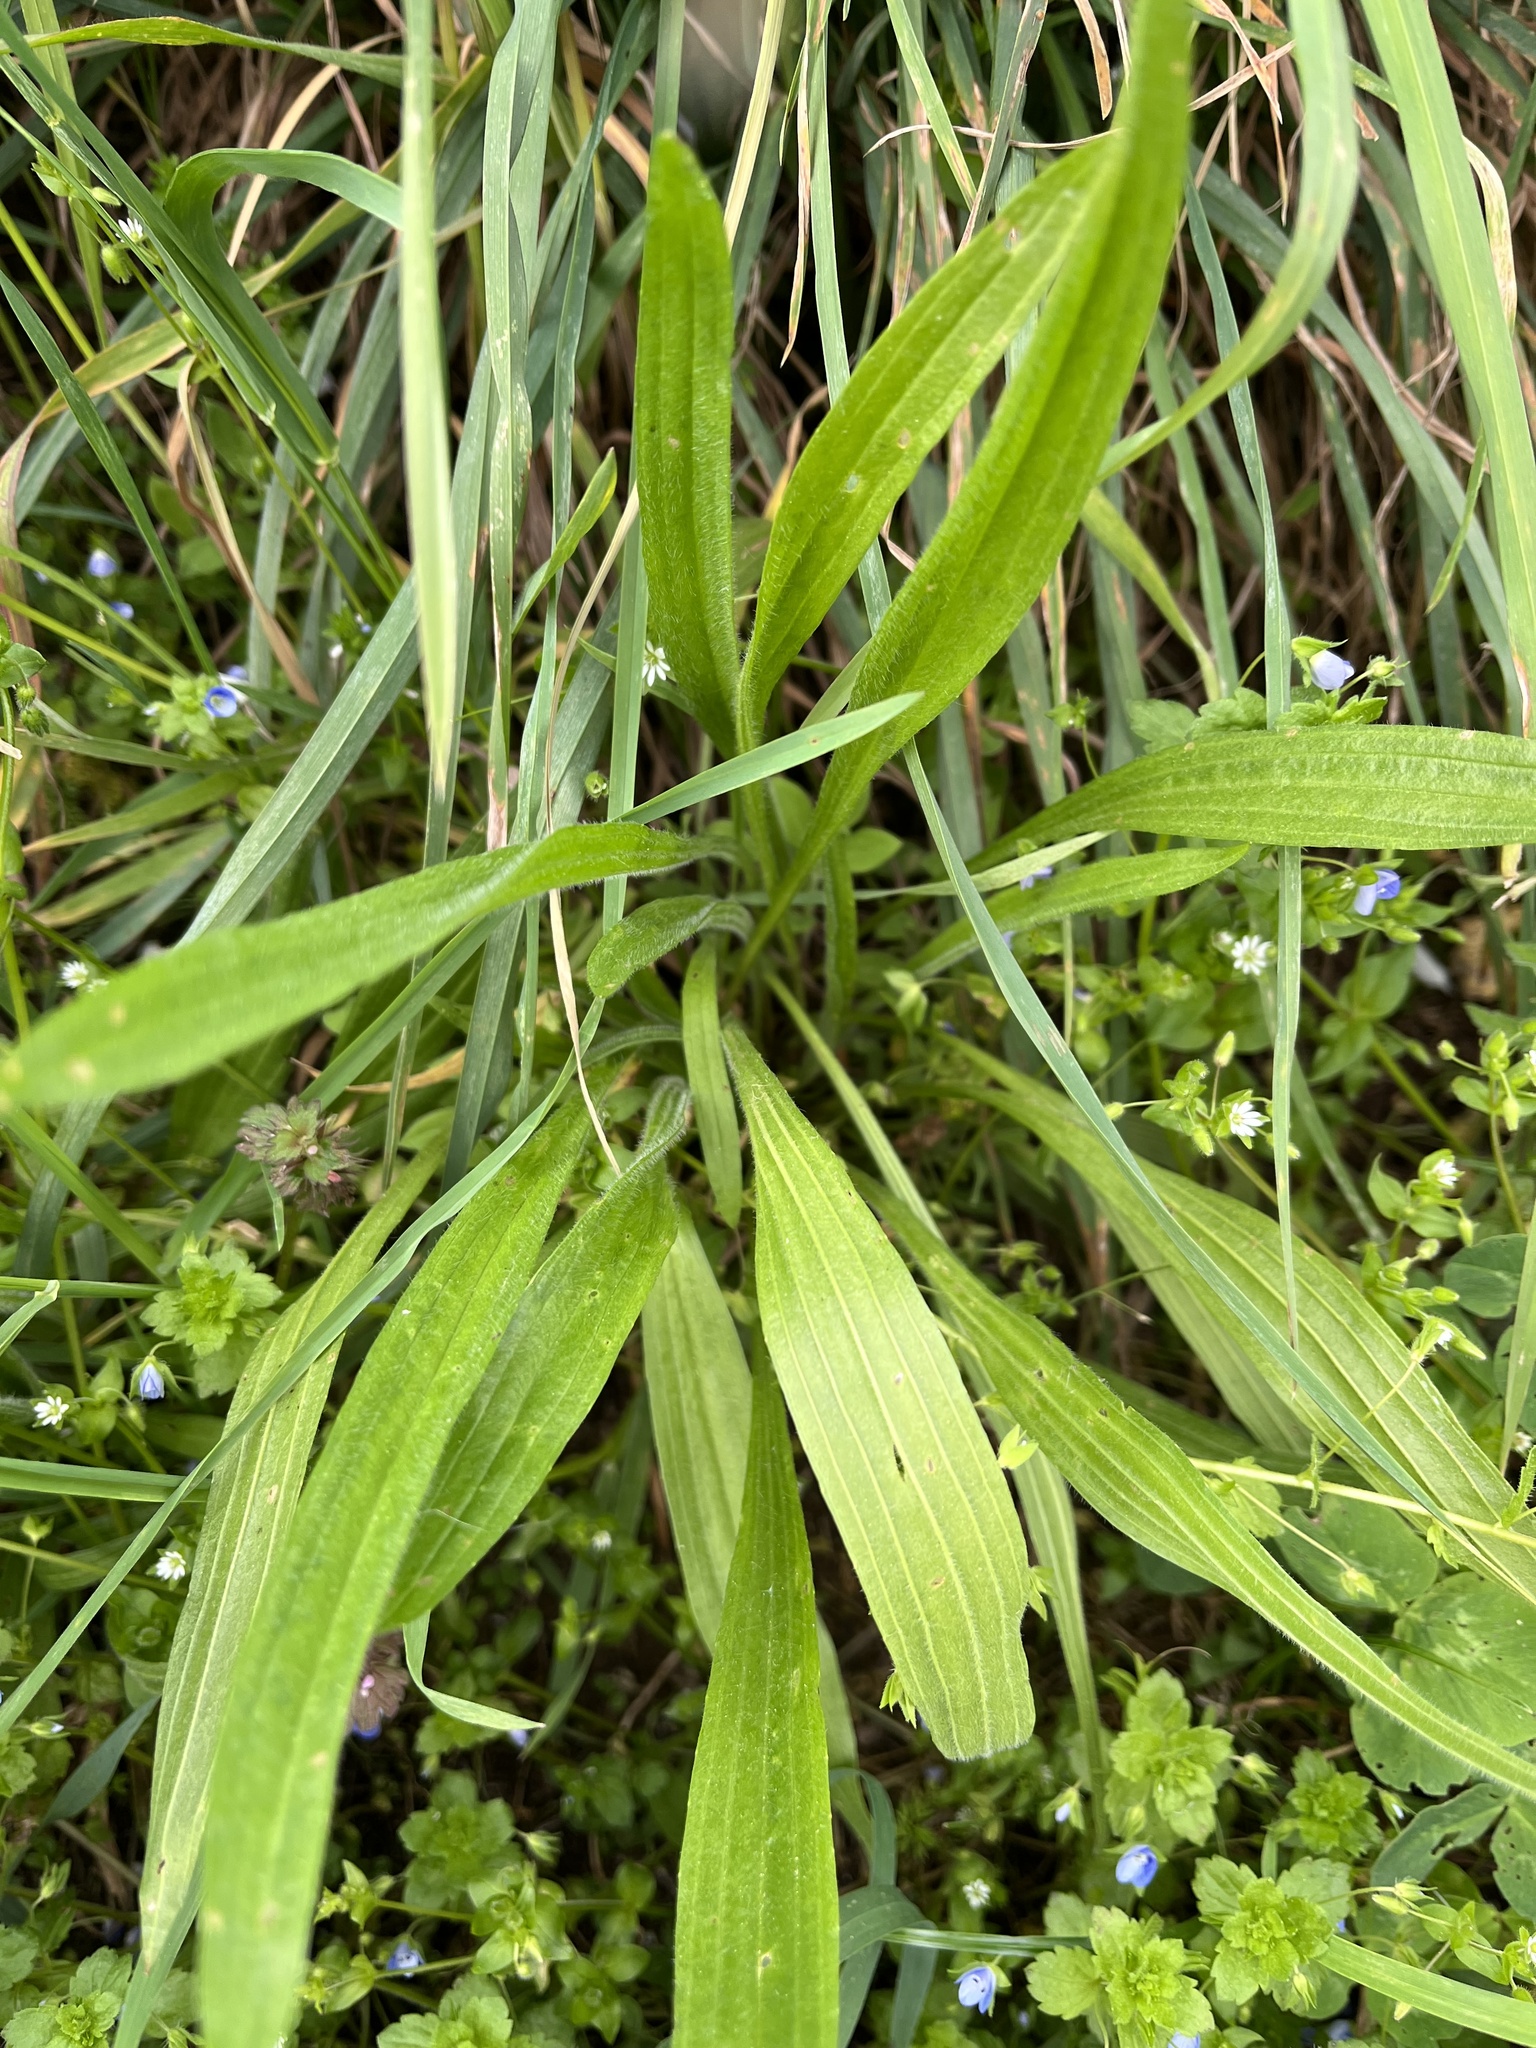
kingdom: Plantae
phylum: Tracheophyta
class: Magnoliopsida
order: Lamiales
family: Plantaginaceae
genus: Plantago
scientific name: Plantago lanceolata
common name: Ribwort plantain
